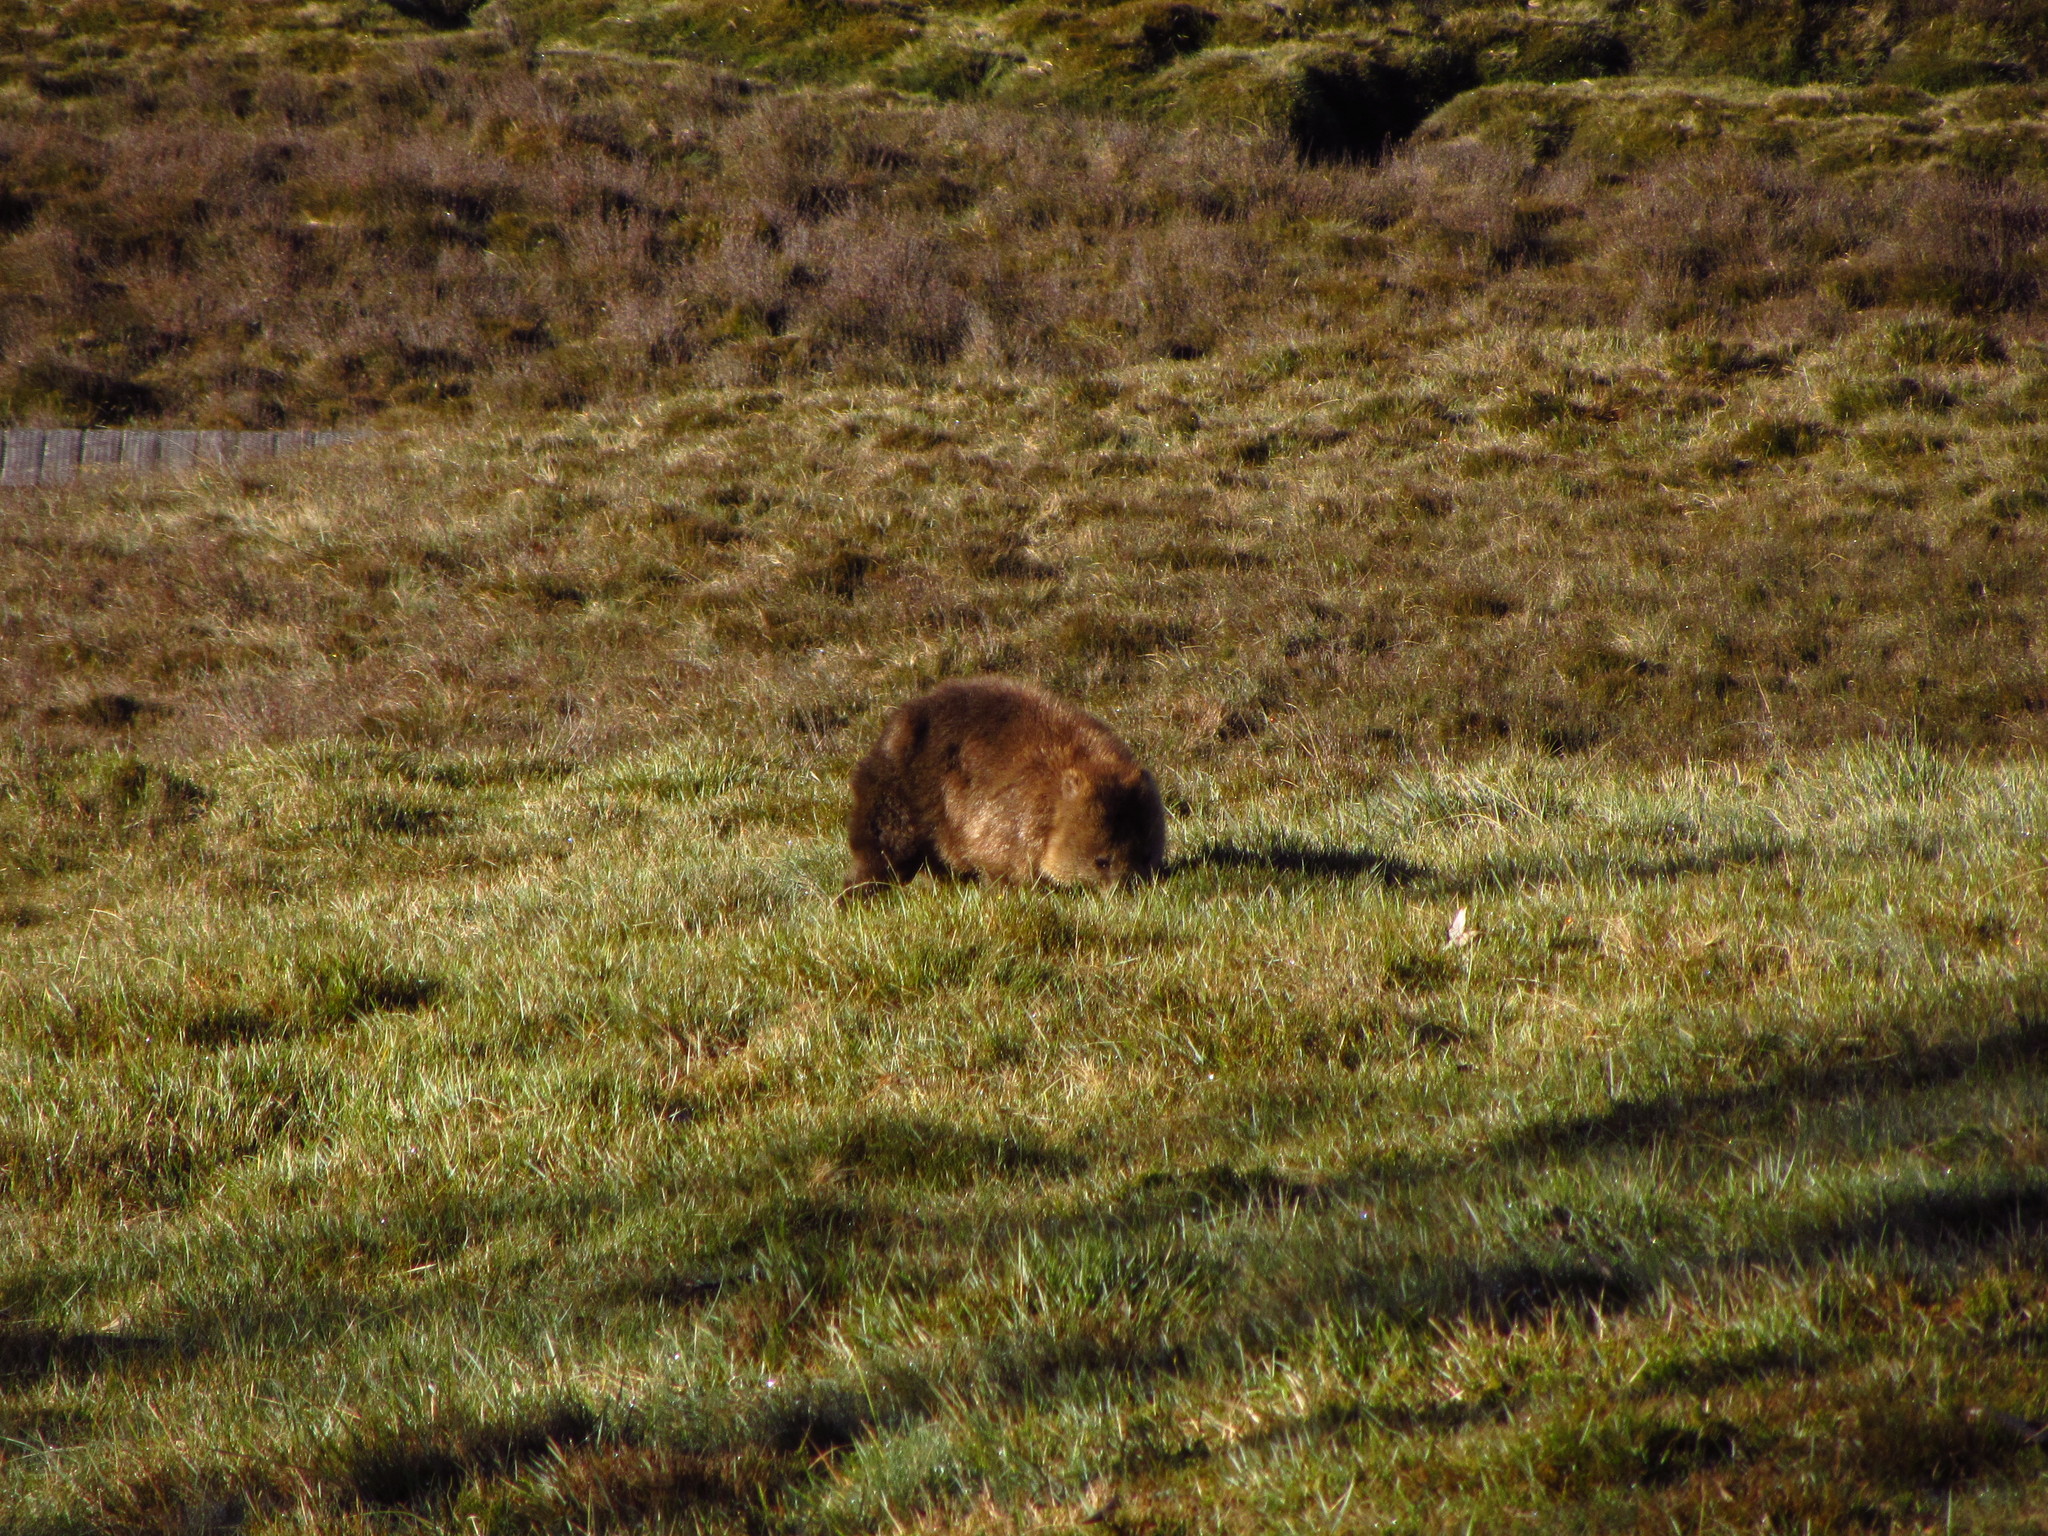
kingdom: Animalia
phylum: Chordata
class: Mammalia
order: Diprotodontia
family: Vombatidae
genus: Vombatus
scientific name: Vombatus ursinus
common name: Common wombat
